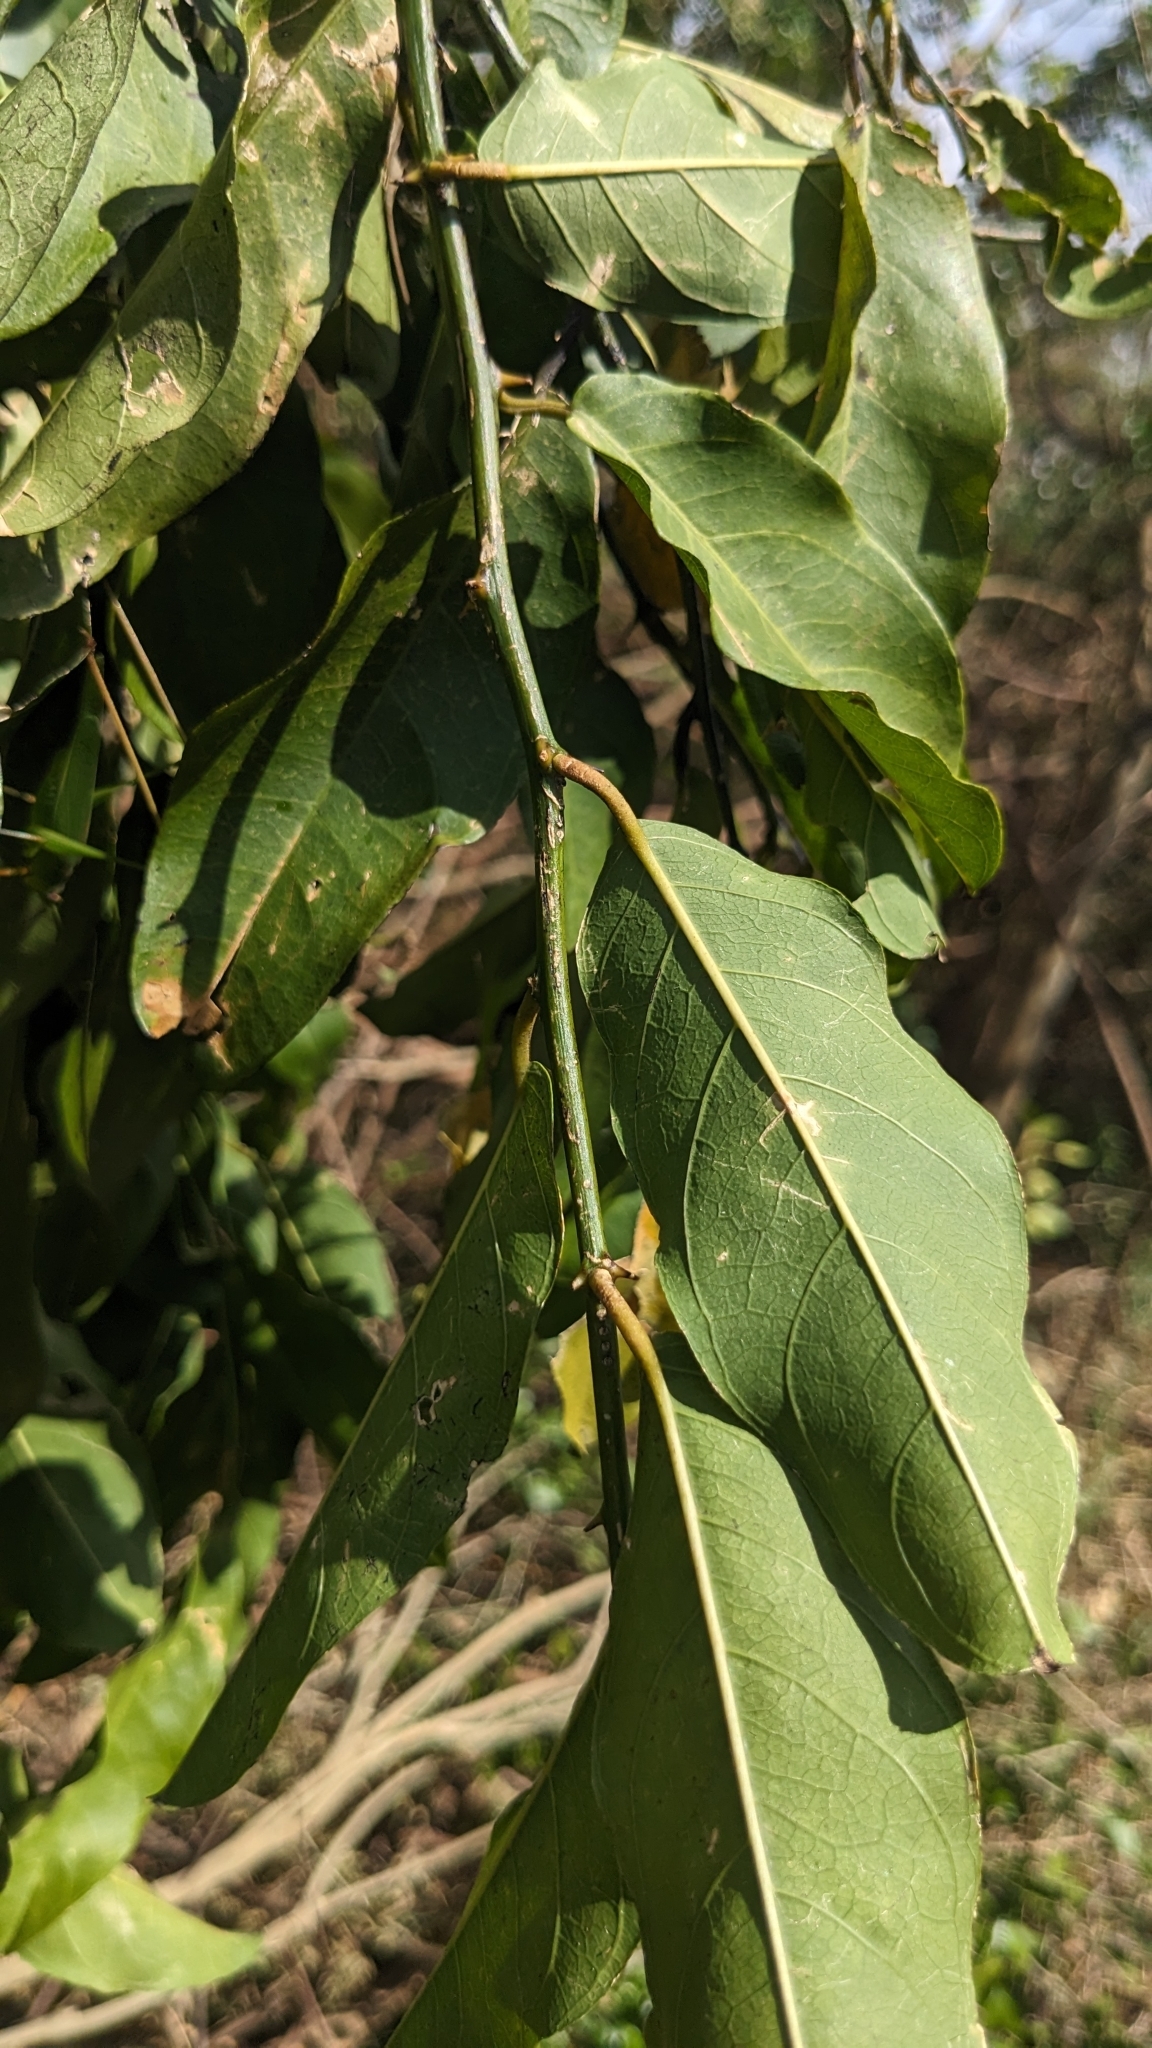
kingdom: Plantae
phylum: Tracheophyta
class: Magnoliopsida
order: Brassicales
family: Capparaceae
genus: Capparis
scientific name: Capparis micracantha
